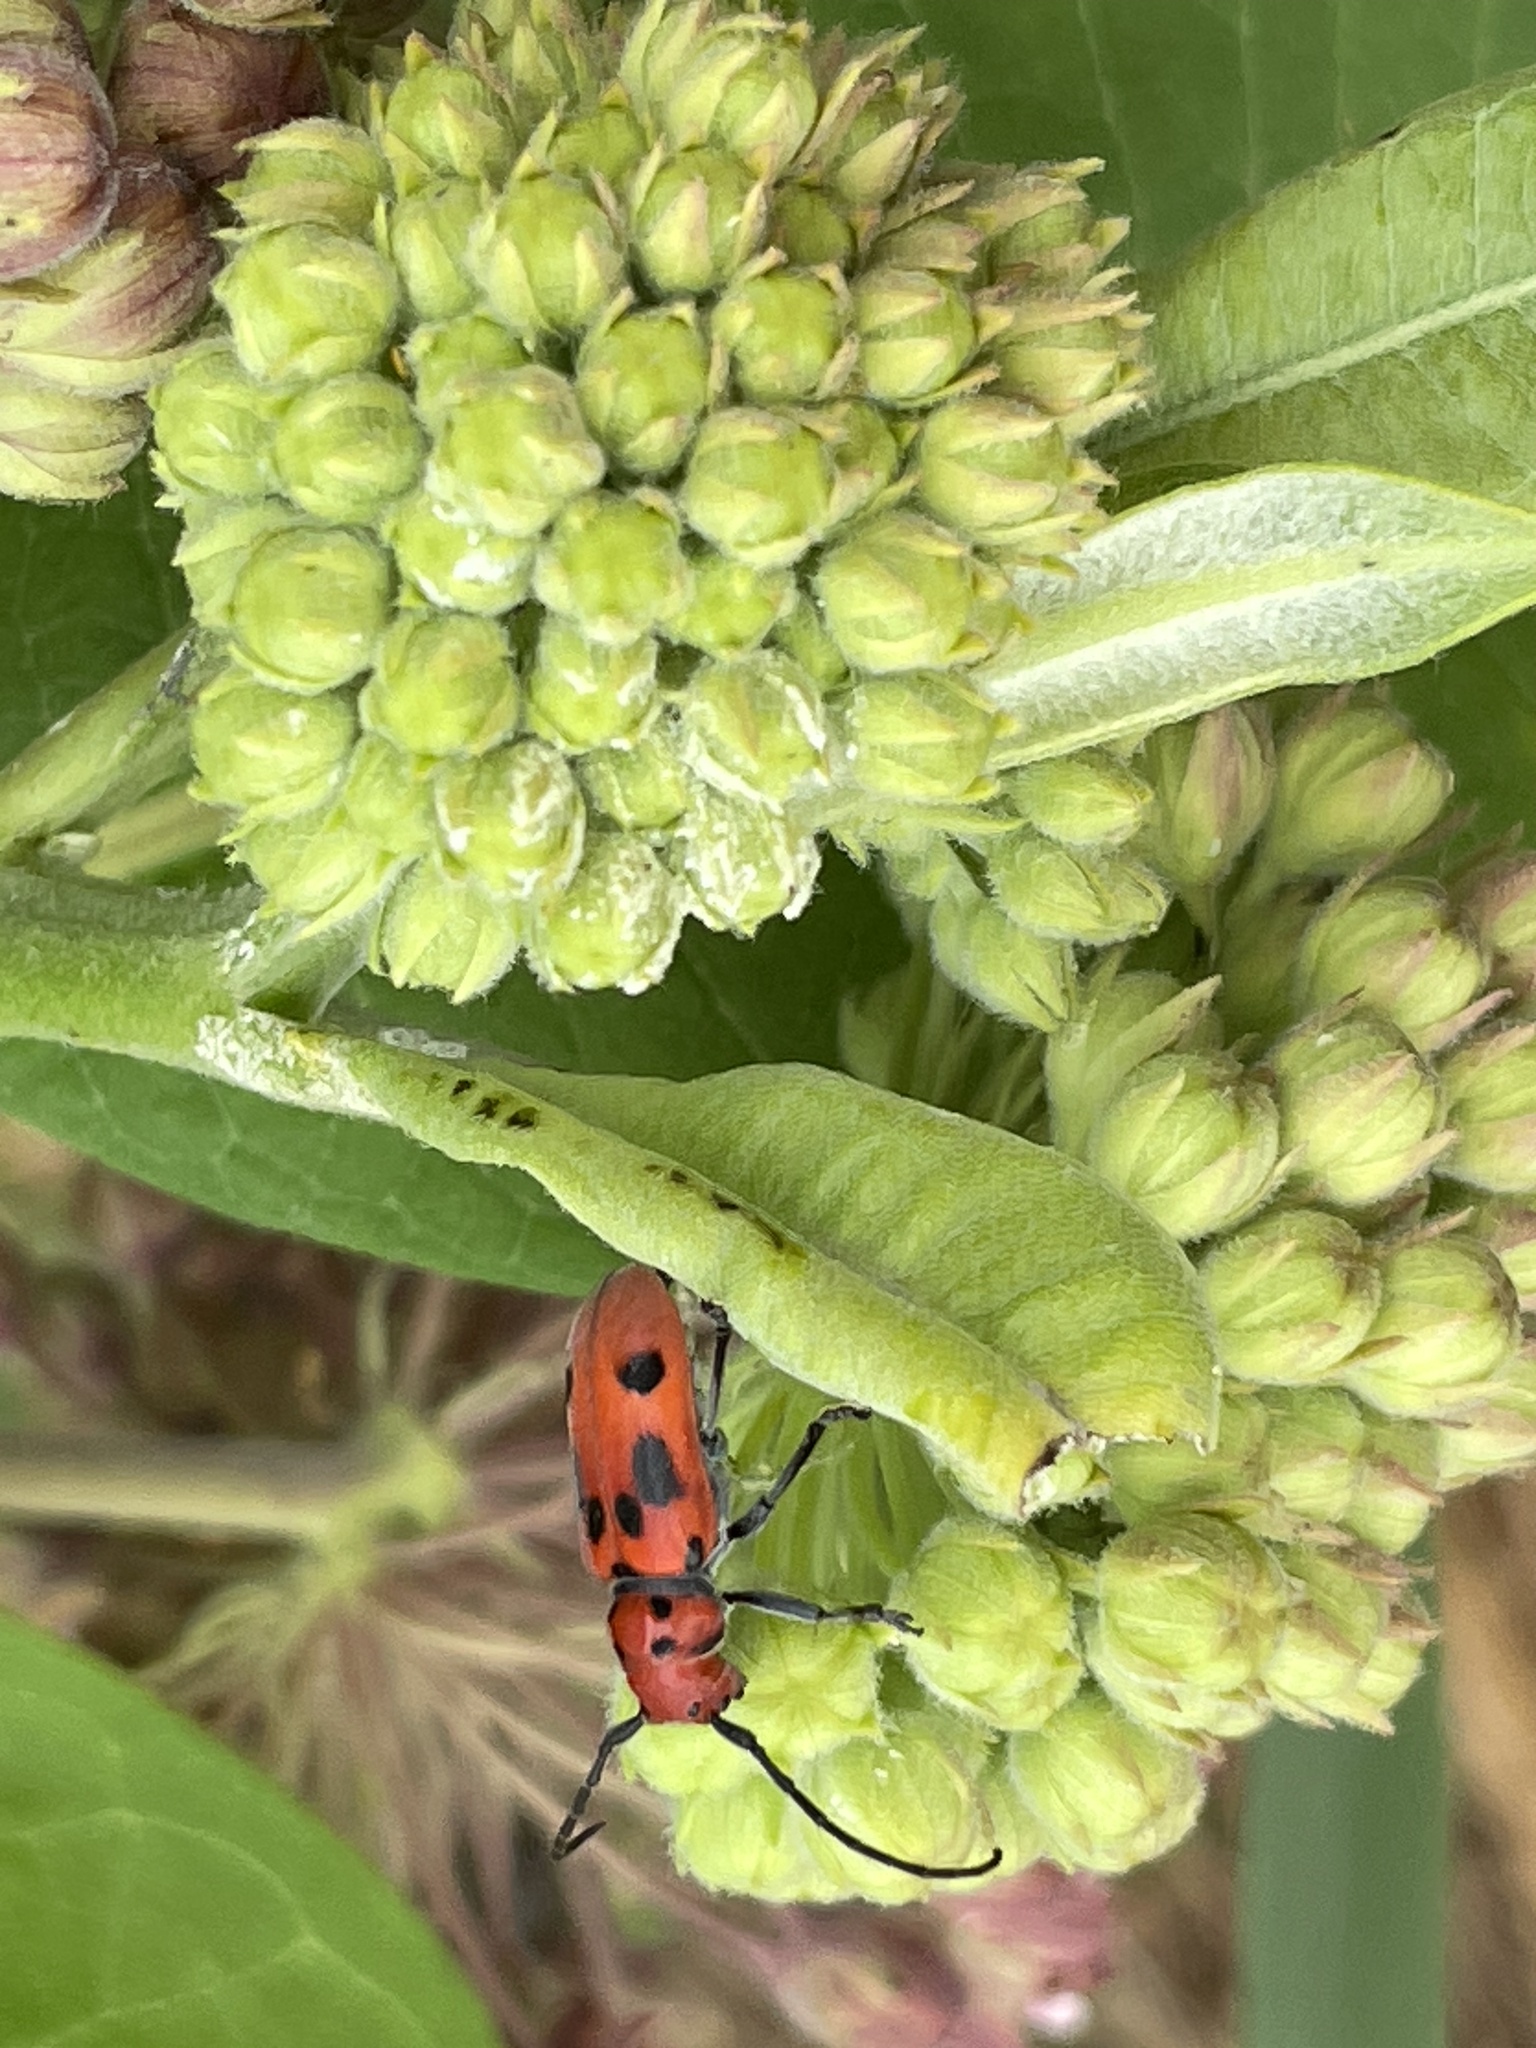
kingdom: Animalia
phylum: Arthropoda
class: Insecta
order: Coleoptera
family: Cerambycidae
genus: Tetraopes
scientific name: Tetraopes tetrophthalmus
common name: Red milkweed beetle
